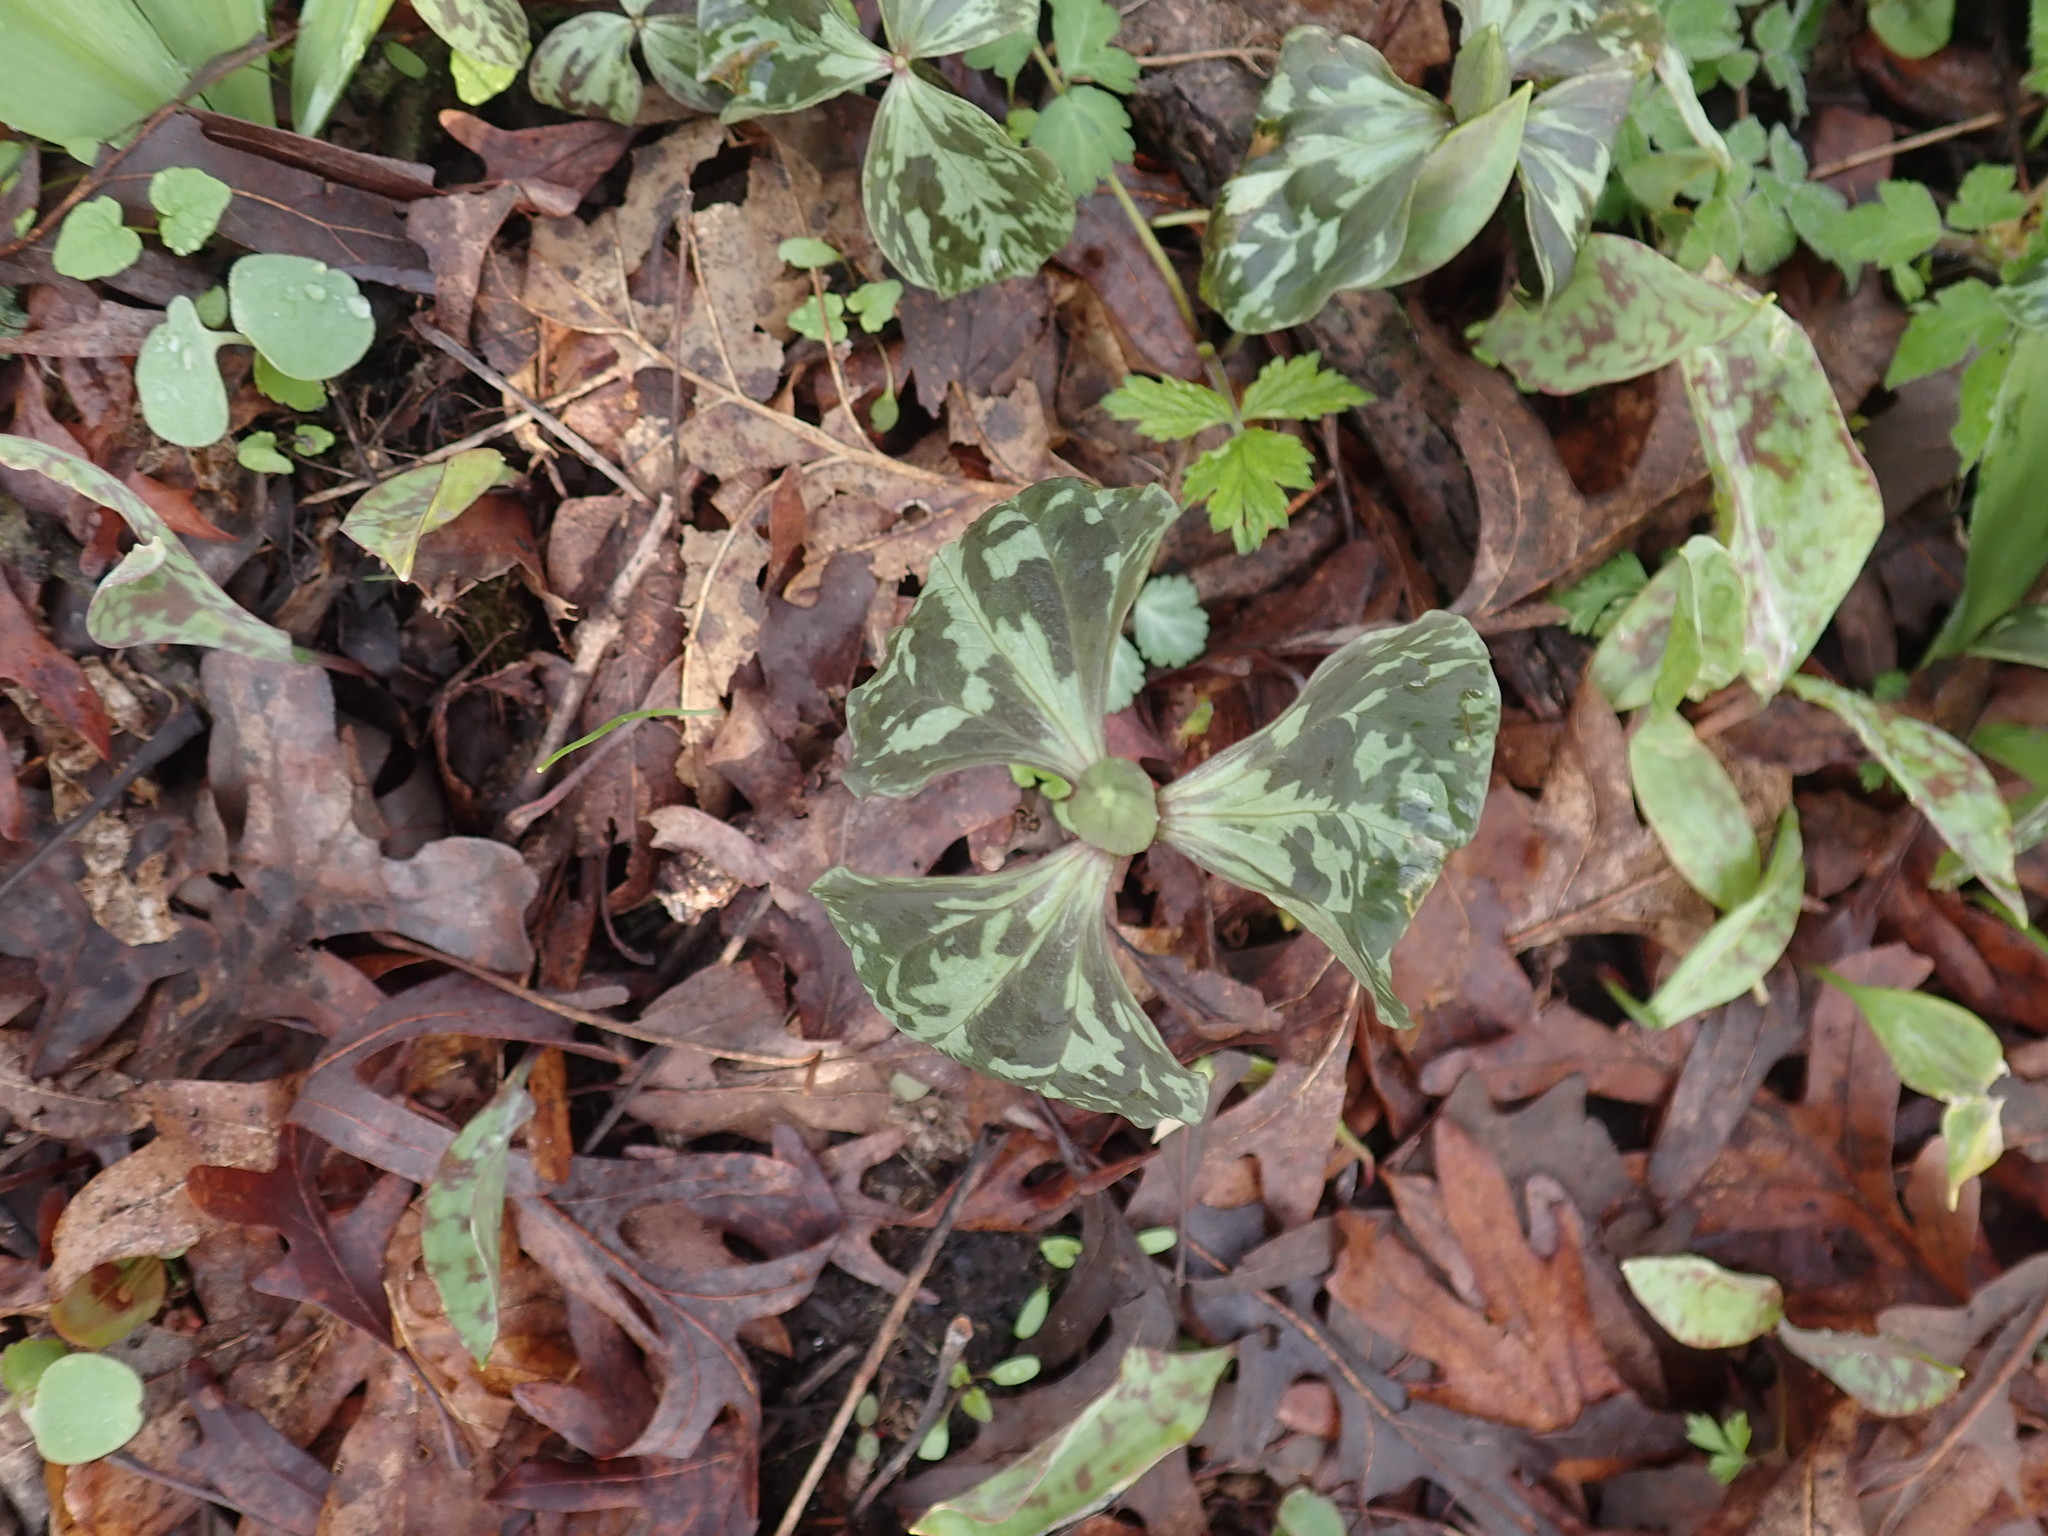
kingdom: Plantae
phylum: Tracheophyta
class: Liliopsida
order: Liliales
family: Melanthiaceae
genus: Trillium
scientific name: Trillium recurvatum
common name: Bloody butcher
